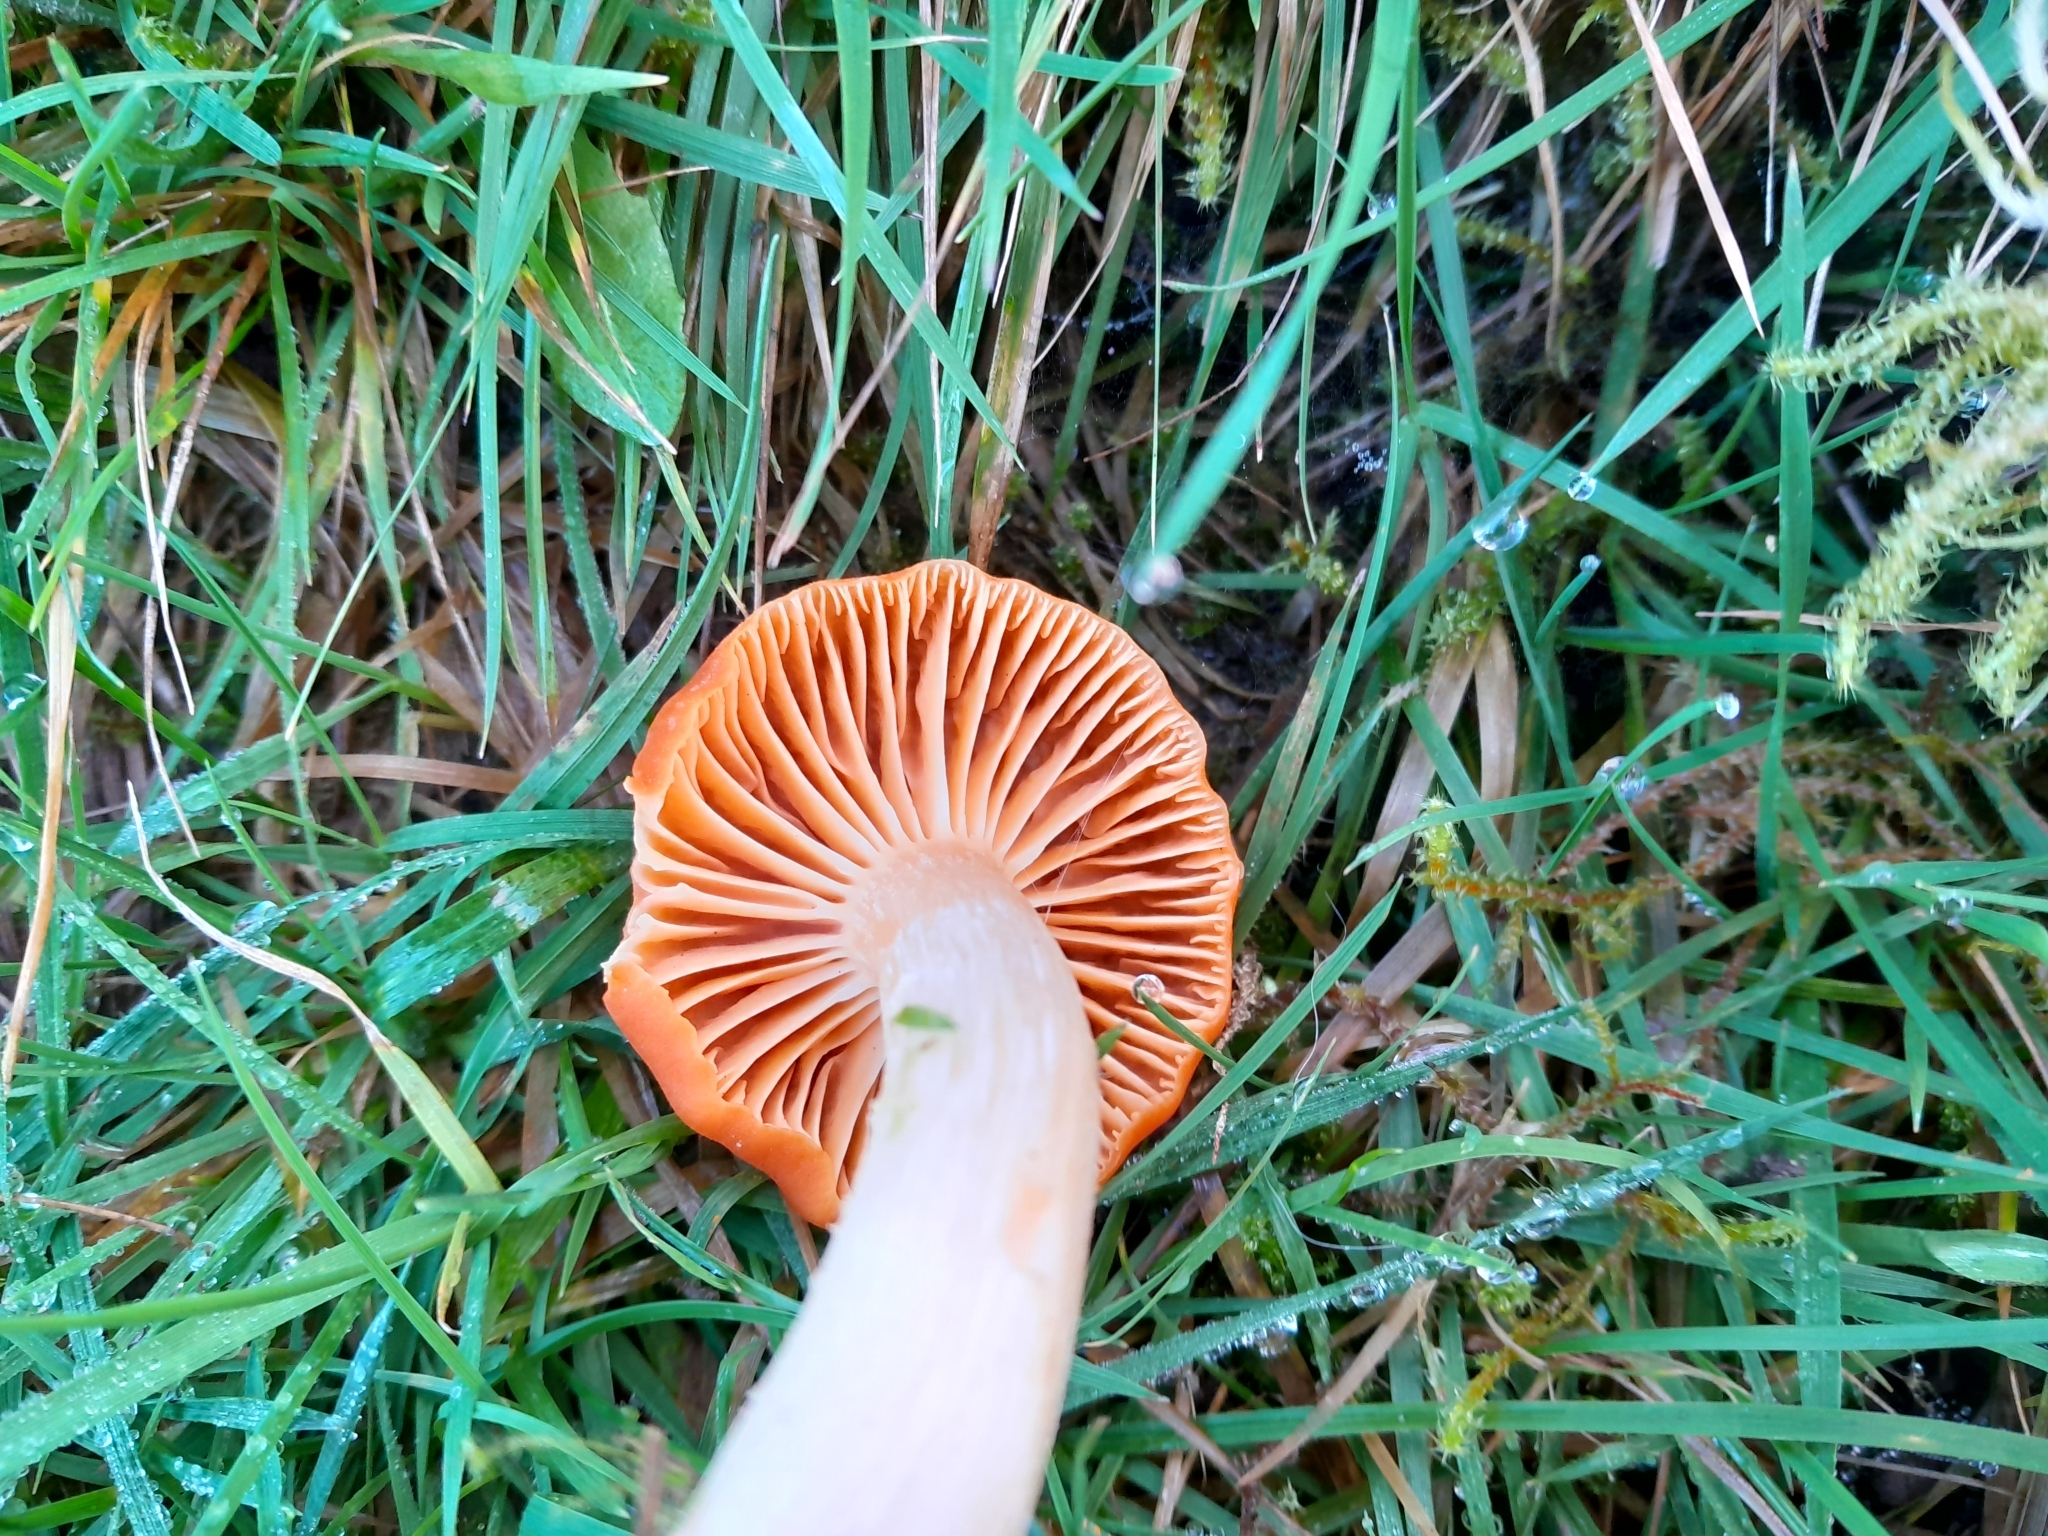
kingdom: Fungi
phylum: Basidiomycota
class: Agaricomycetes
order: Agaricales
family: Hygrophoraceae
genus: Cuphophyllus
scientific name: Cuphophyllus pratensis
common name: Meadow waxcap
